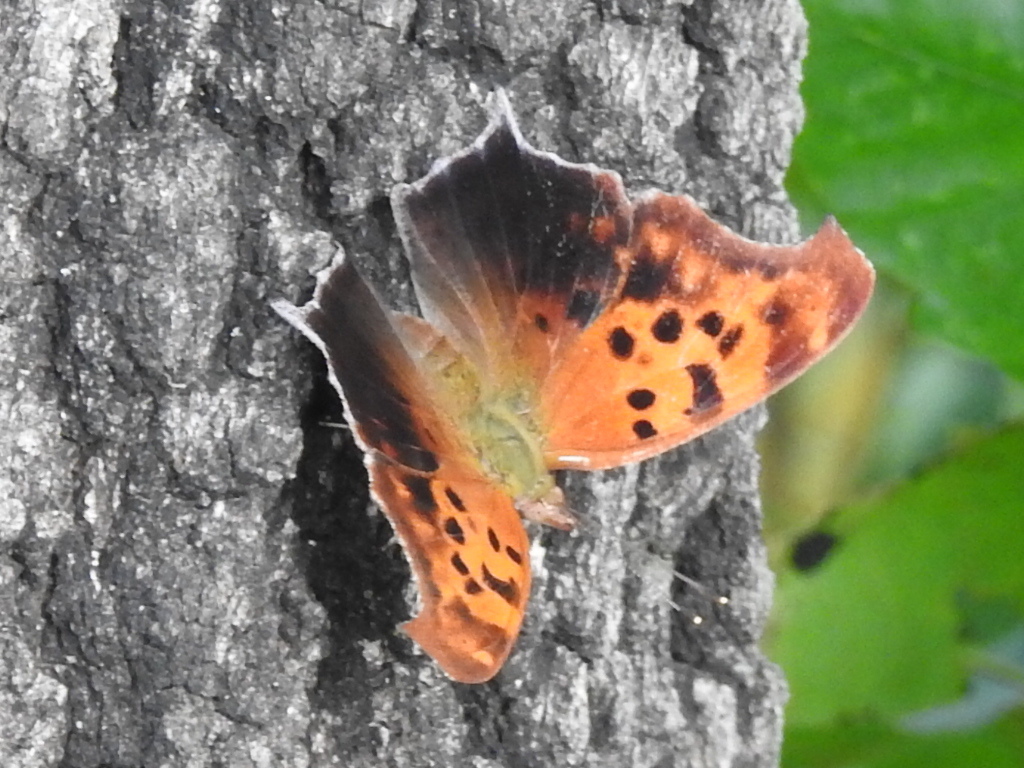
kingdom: Animalia
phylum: Arthropoda
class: Insecta
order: Lepidoptera
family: Nymphalidae
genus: Polygonia
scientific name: Polygonia interrogationis
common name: Question mark
